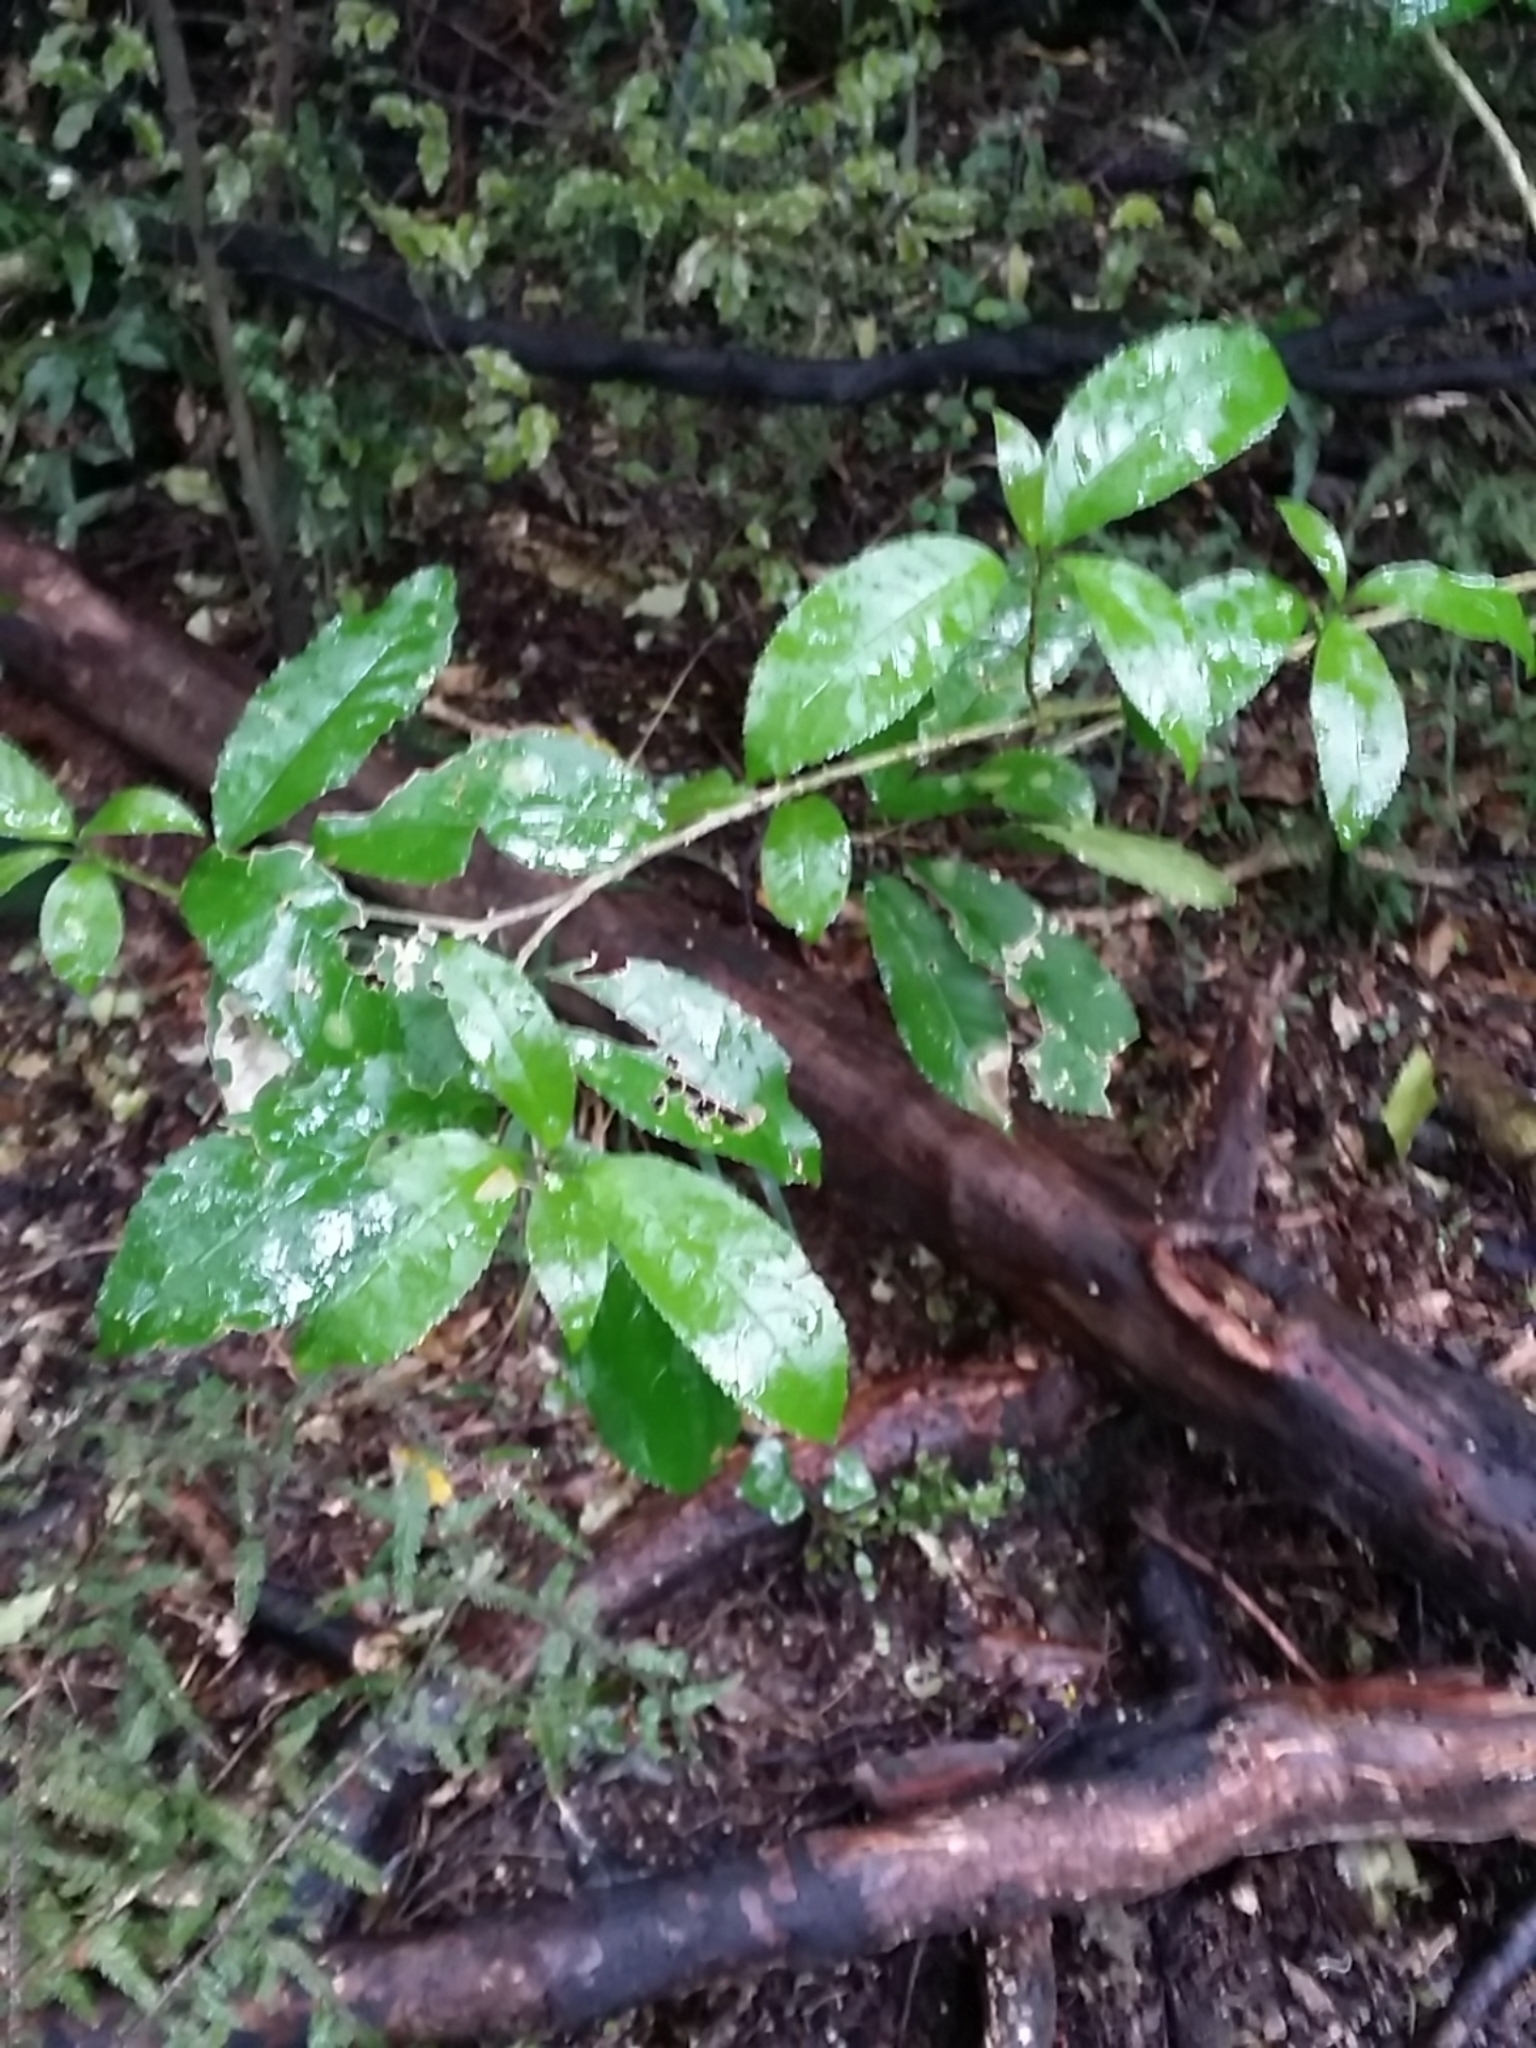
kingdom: Plantae
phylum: Tracheophyta
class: Magnoliopsida
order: Malpighiales
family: Violaceae
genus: Melicytus
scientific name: Melicytus ramiflorus
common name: Mahoe
